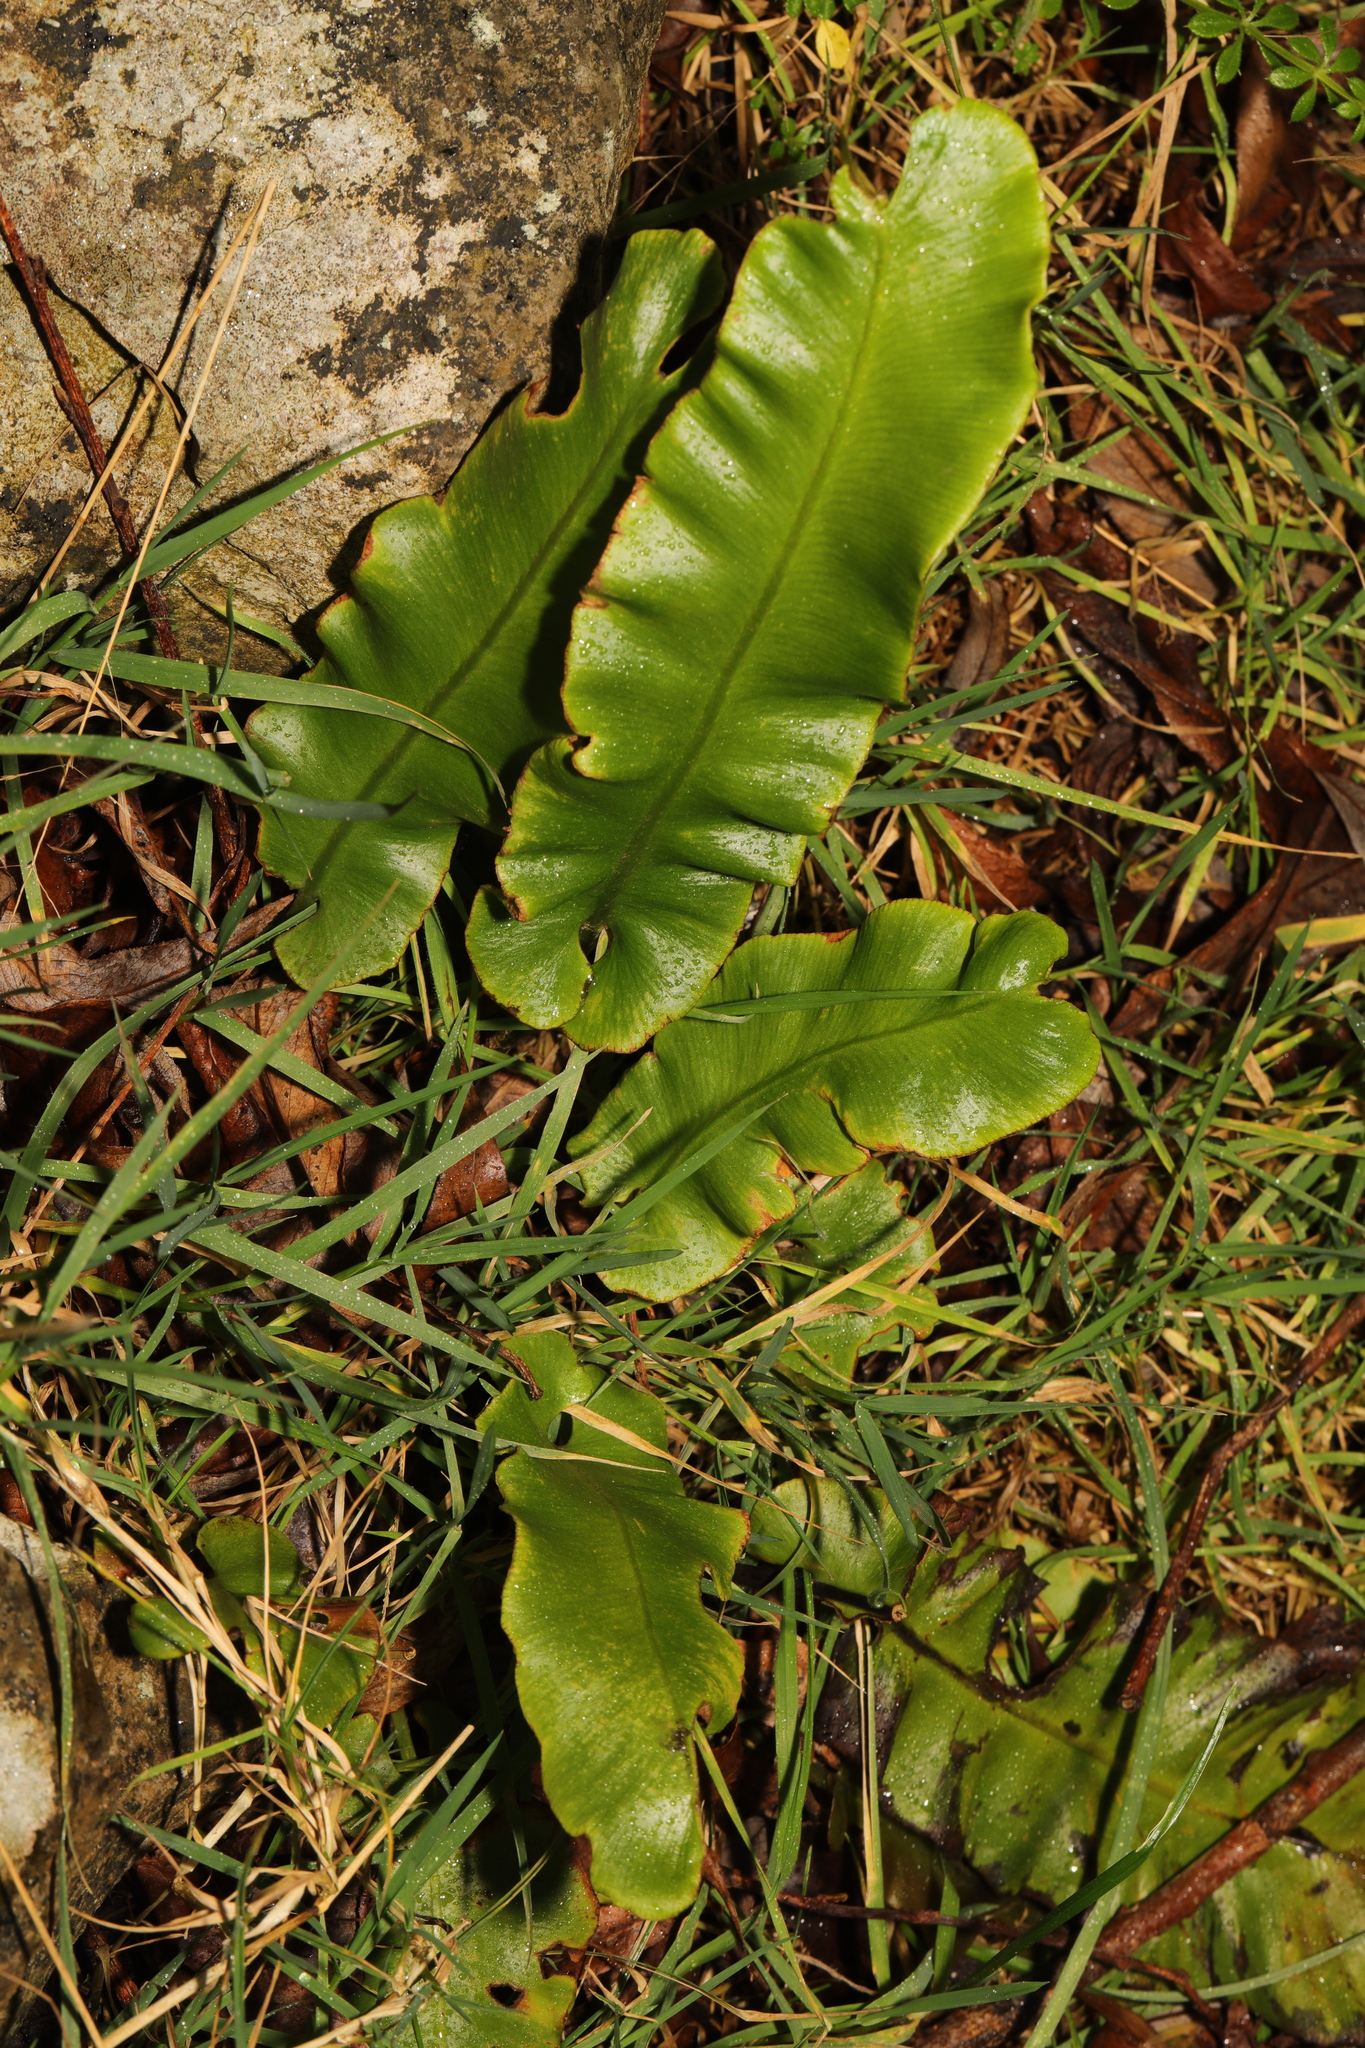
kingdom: Plantae
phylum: Tracheophyta
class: Polypodiopsida
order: Polypodiales
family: Aspleniaceae
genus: Asplenium
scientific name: Asplenium scolopendrium
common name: Hart's-tongue fern
